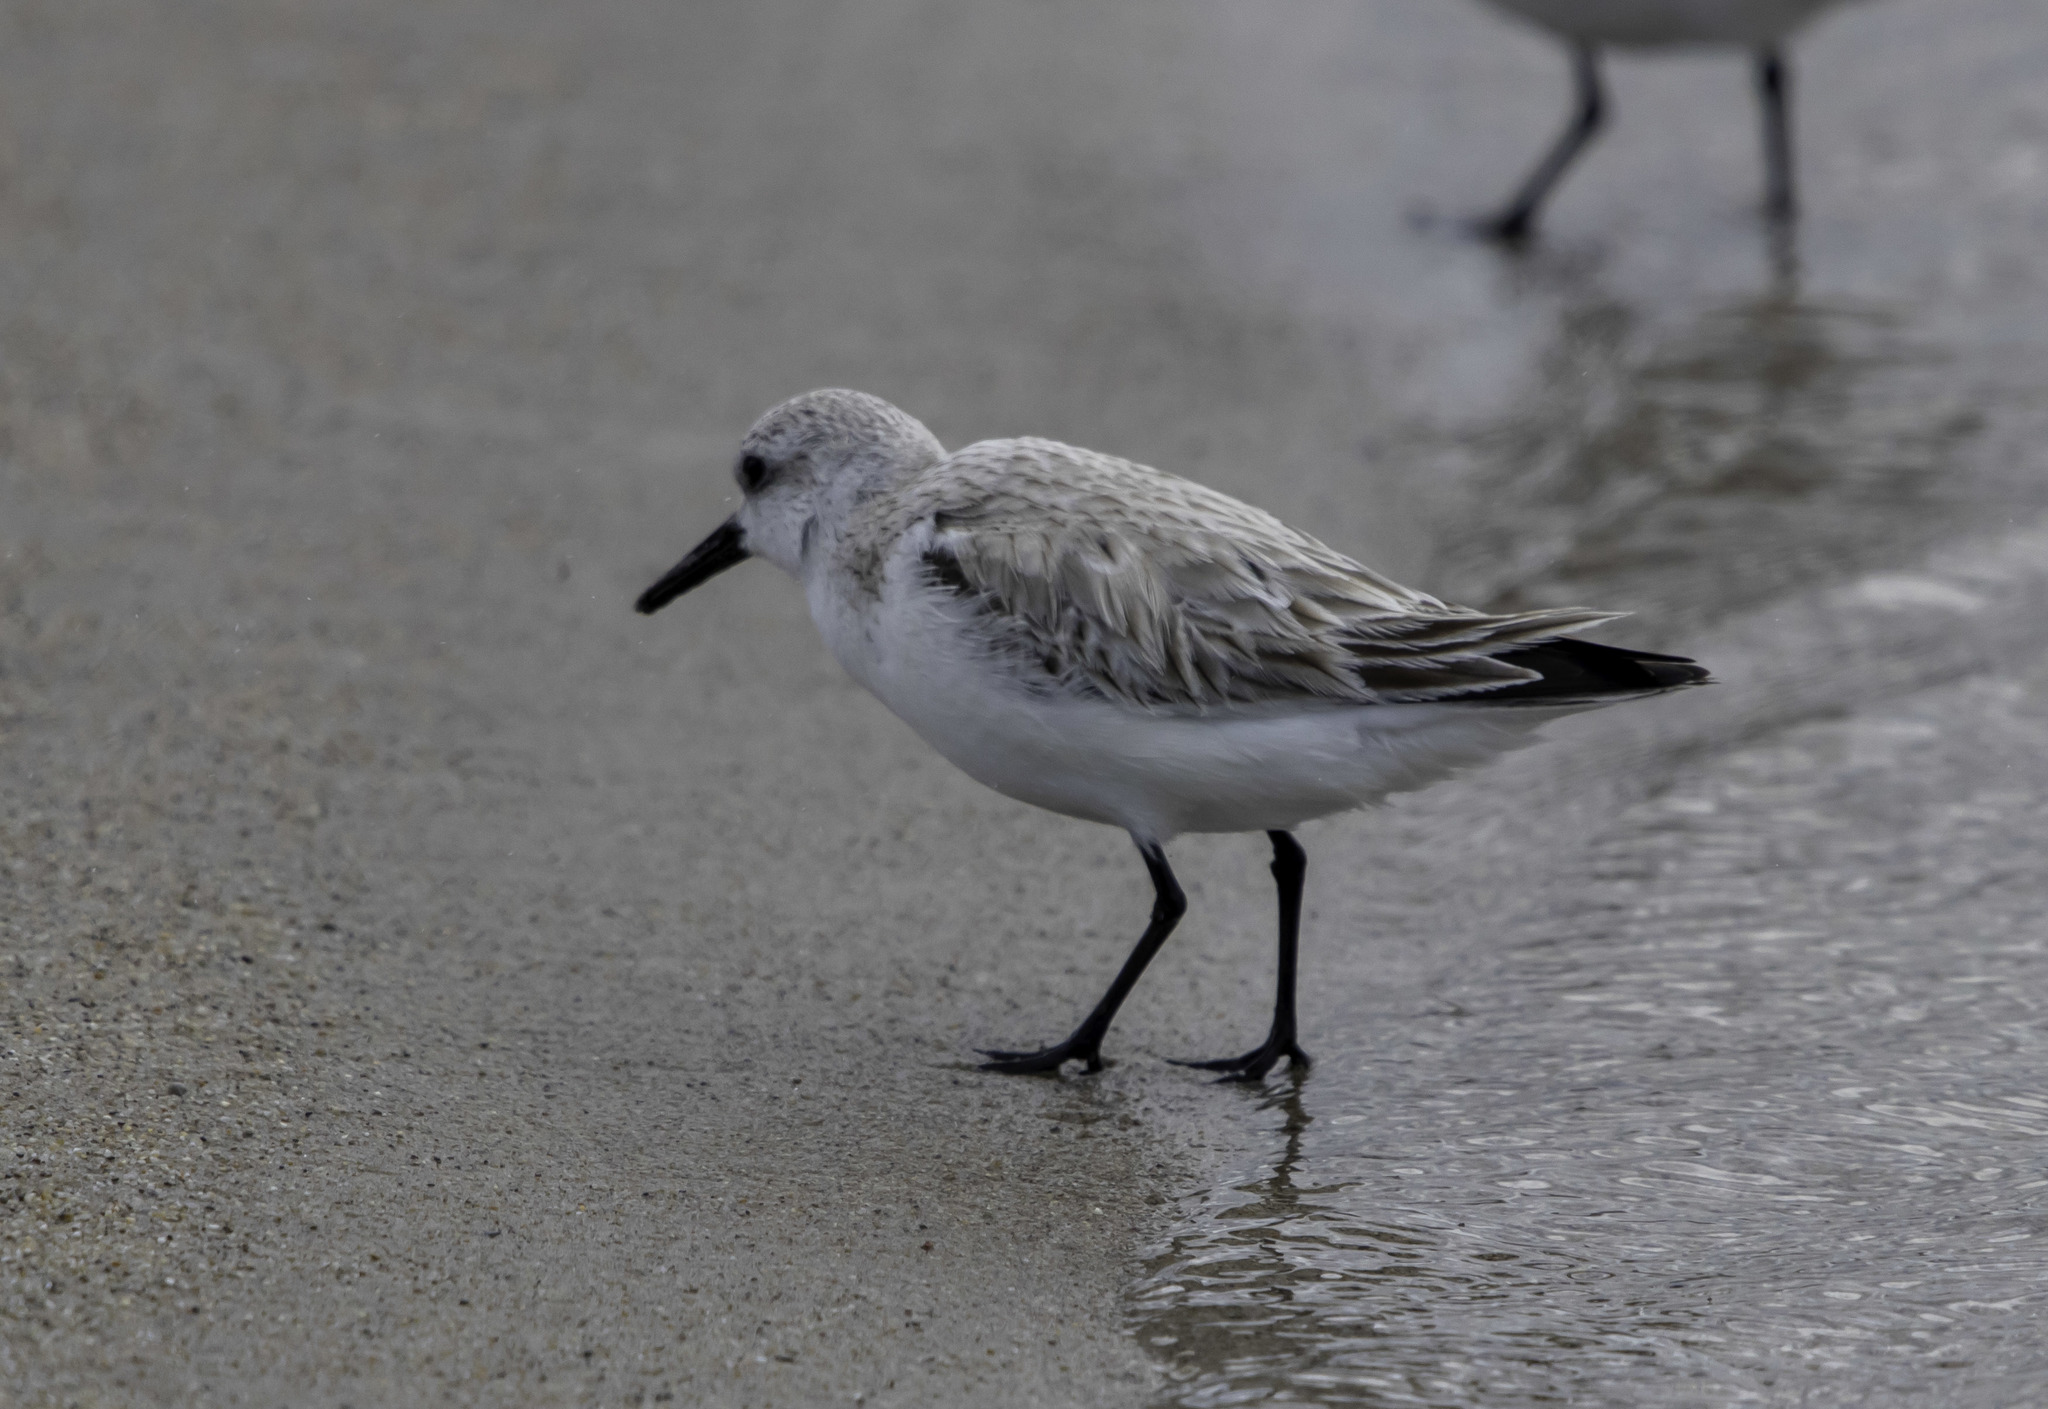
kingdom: Animalia
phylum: Chordata
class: Aves
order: Charadriiformes
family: Scolopacidae
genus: Calidris
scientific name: Calidris alba
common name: Sanderling
